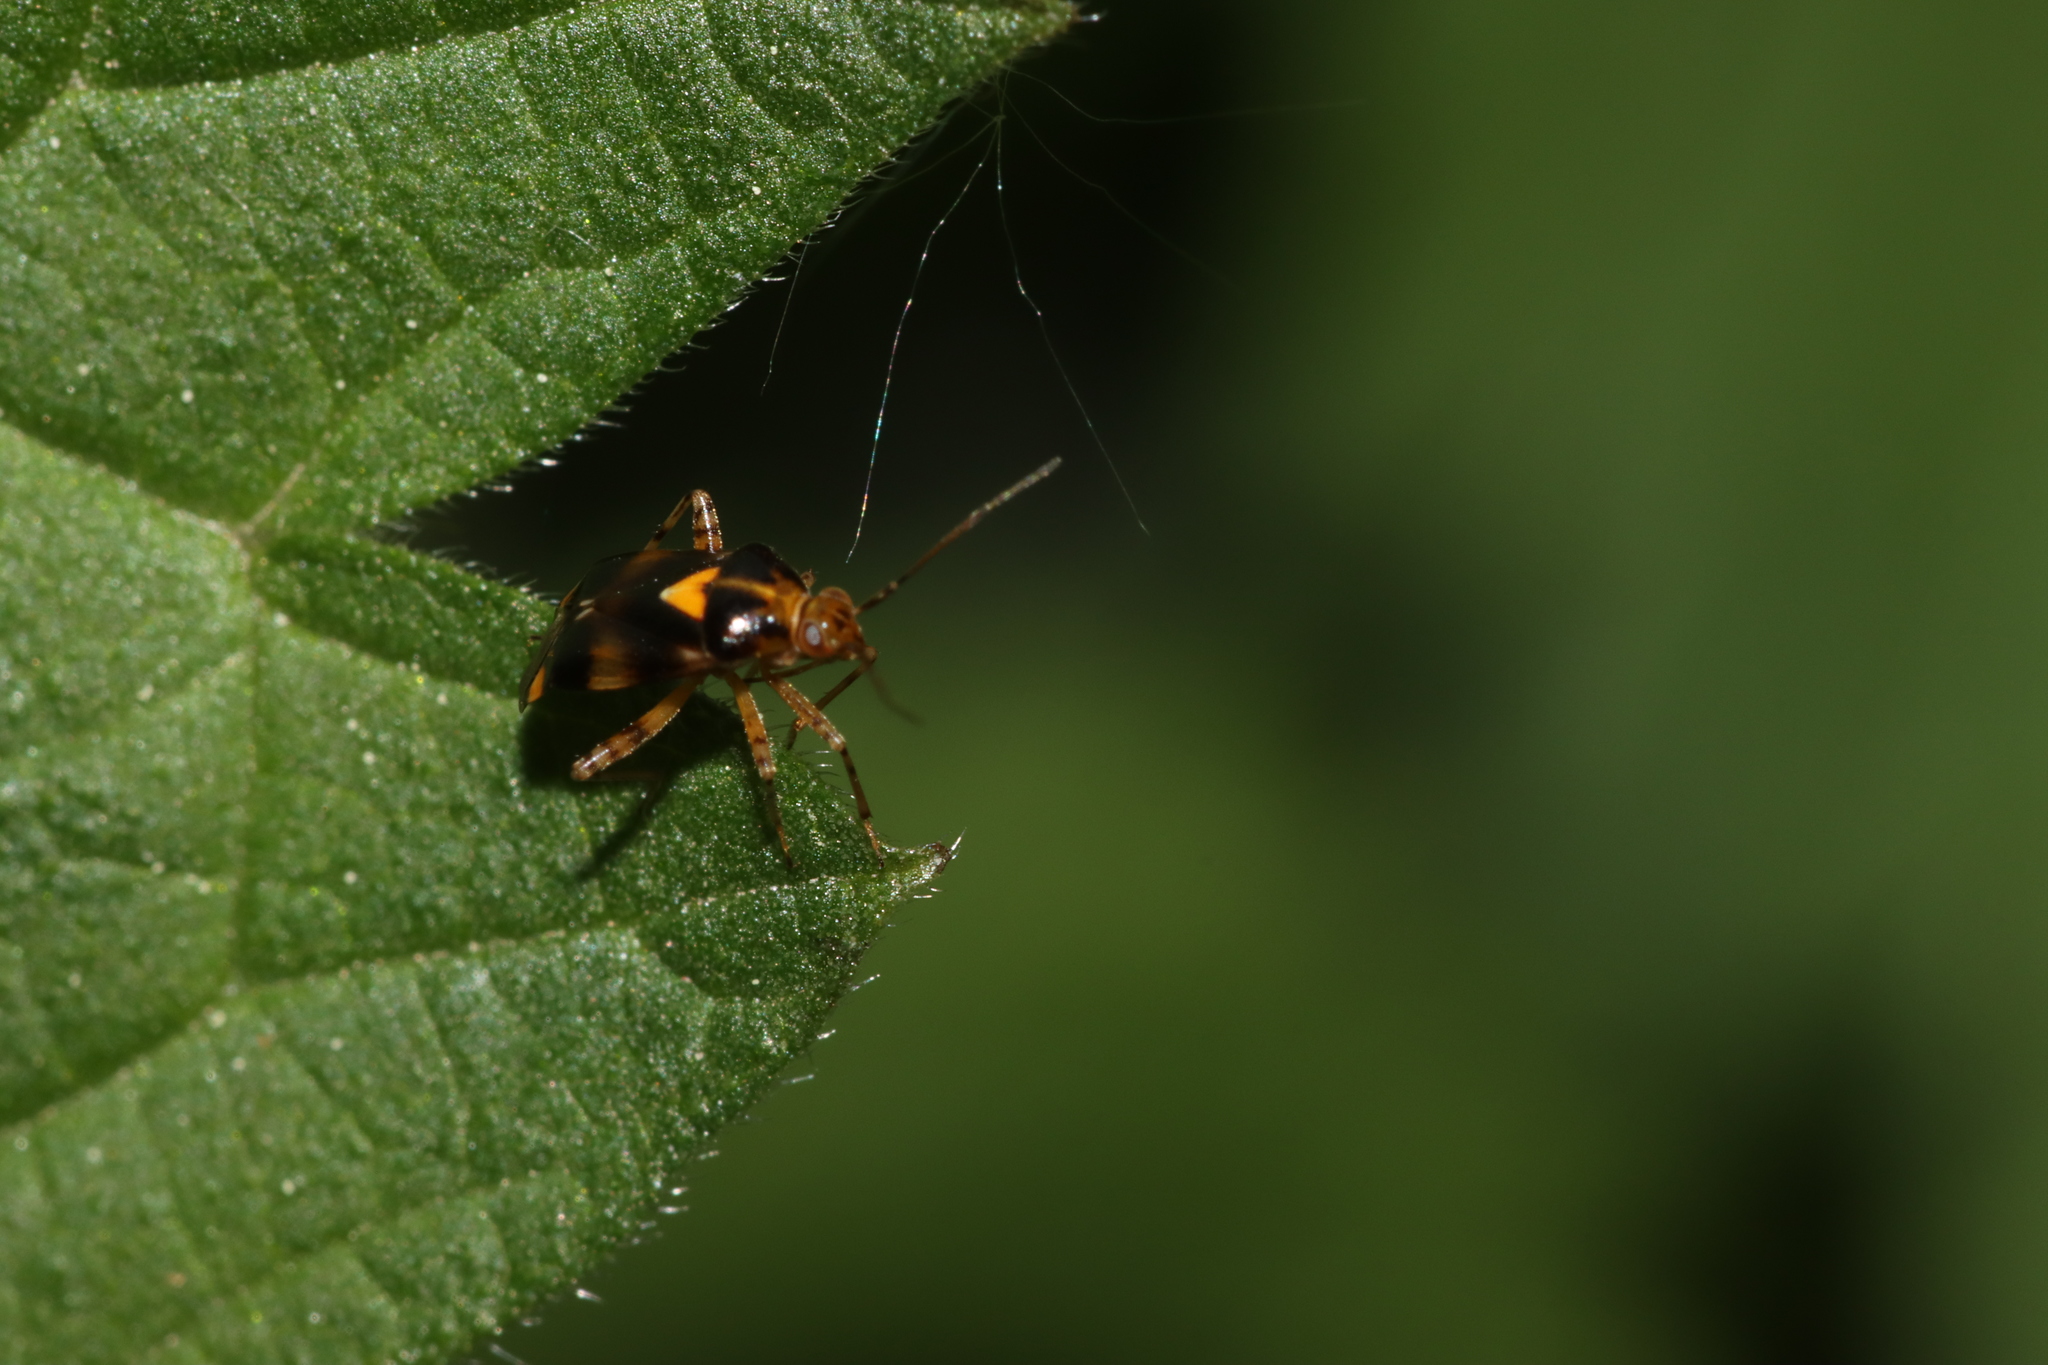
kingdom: Animalia
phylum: Arthropoda
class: Insecta
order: Hemiptera
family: Miridae
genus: Liocoris
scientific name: Liocoris tripustulatus
